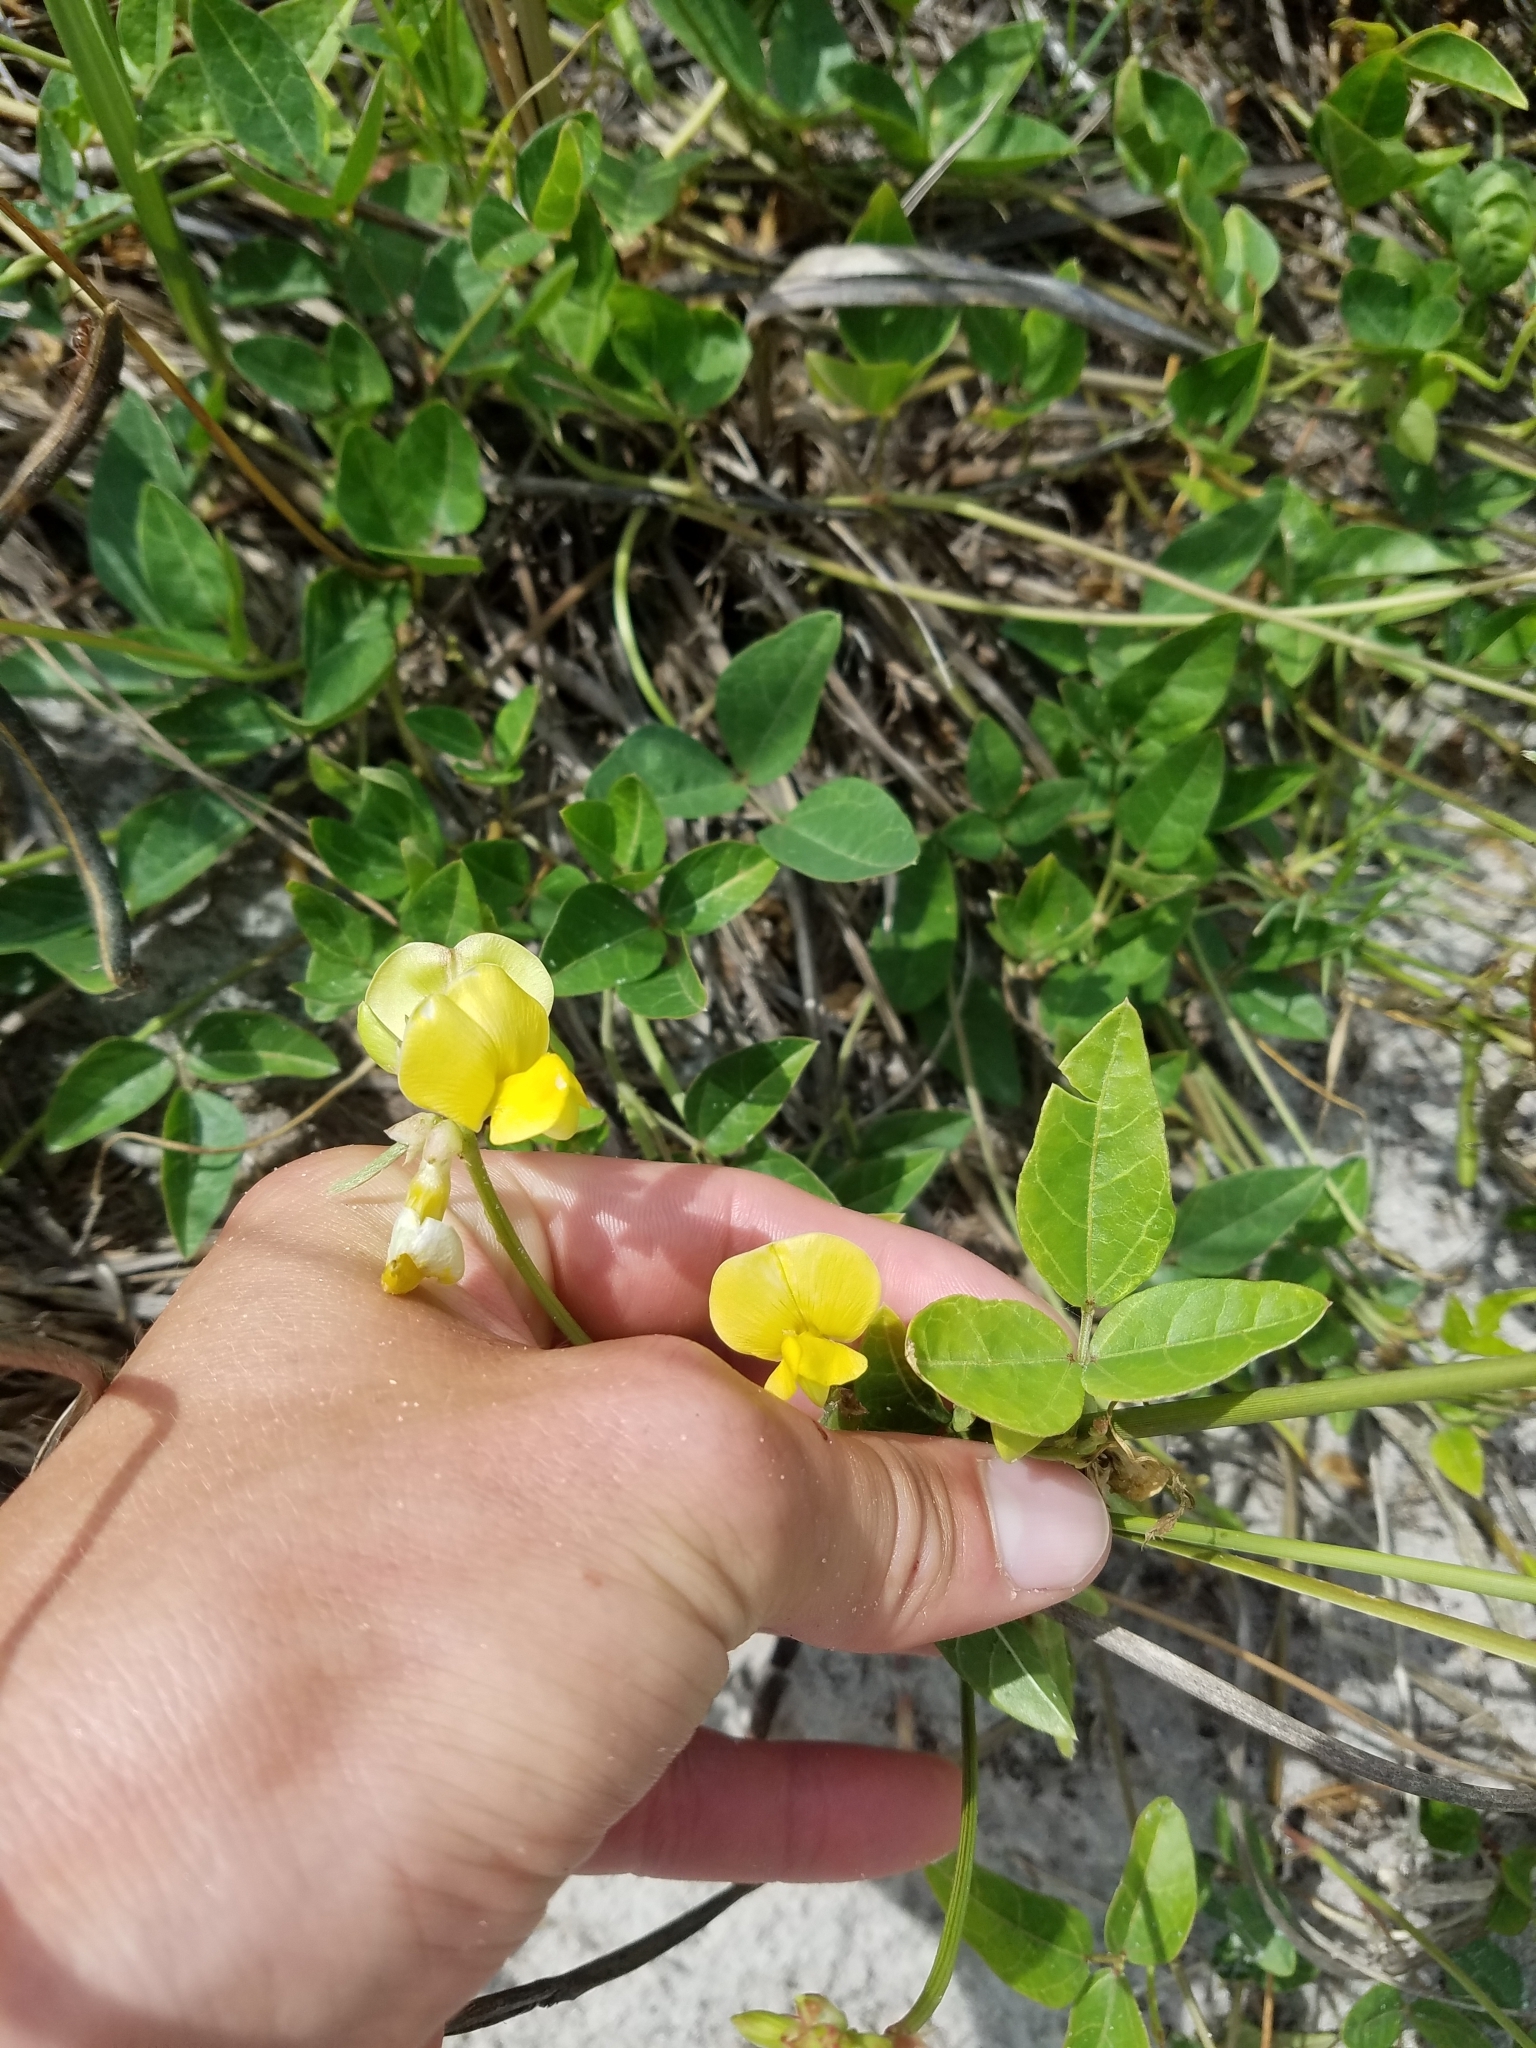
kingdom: Plantae
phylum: Tracheophyta
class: Magnoliopsida
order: Fabales
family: Fabaceae
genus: Vigna
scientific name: Vigna luteola
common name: Hairypod cowpea
